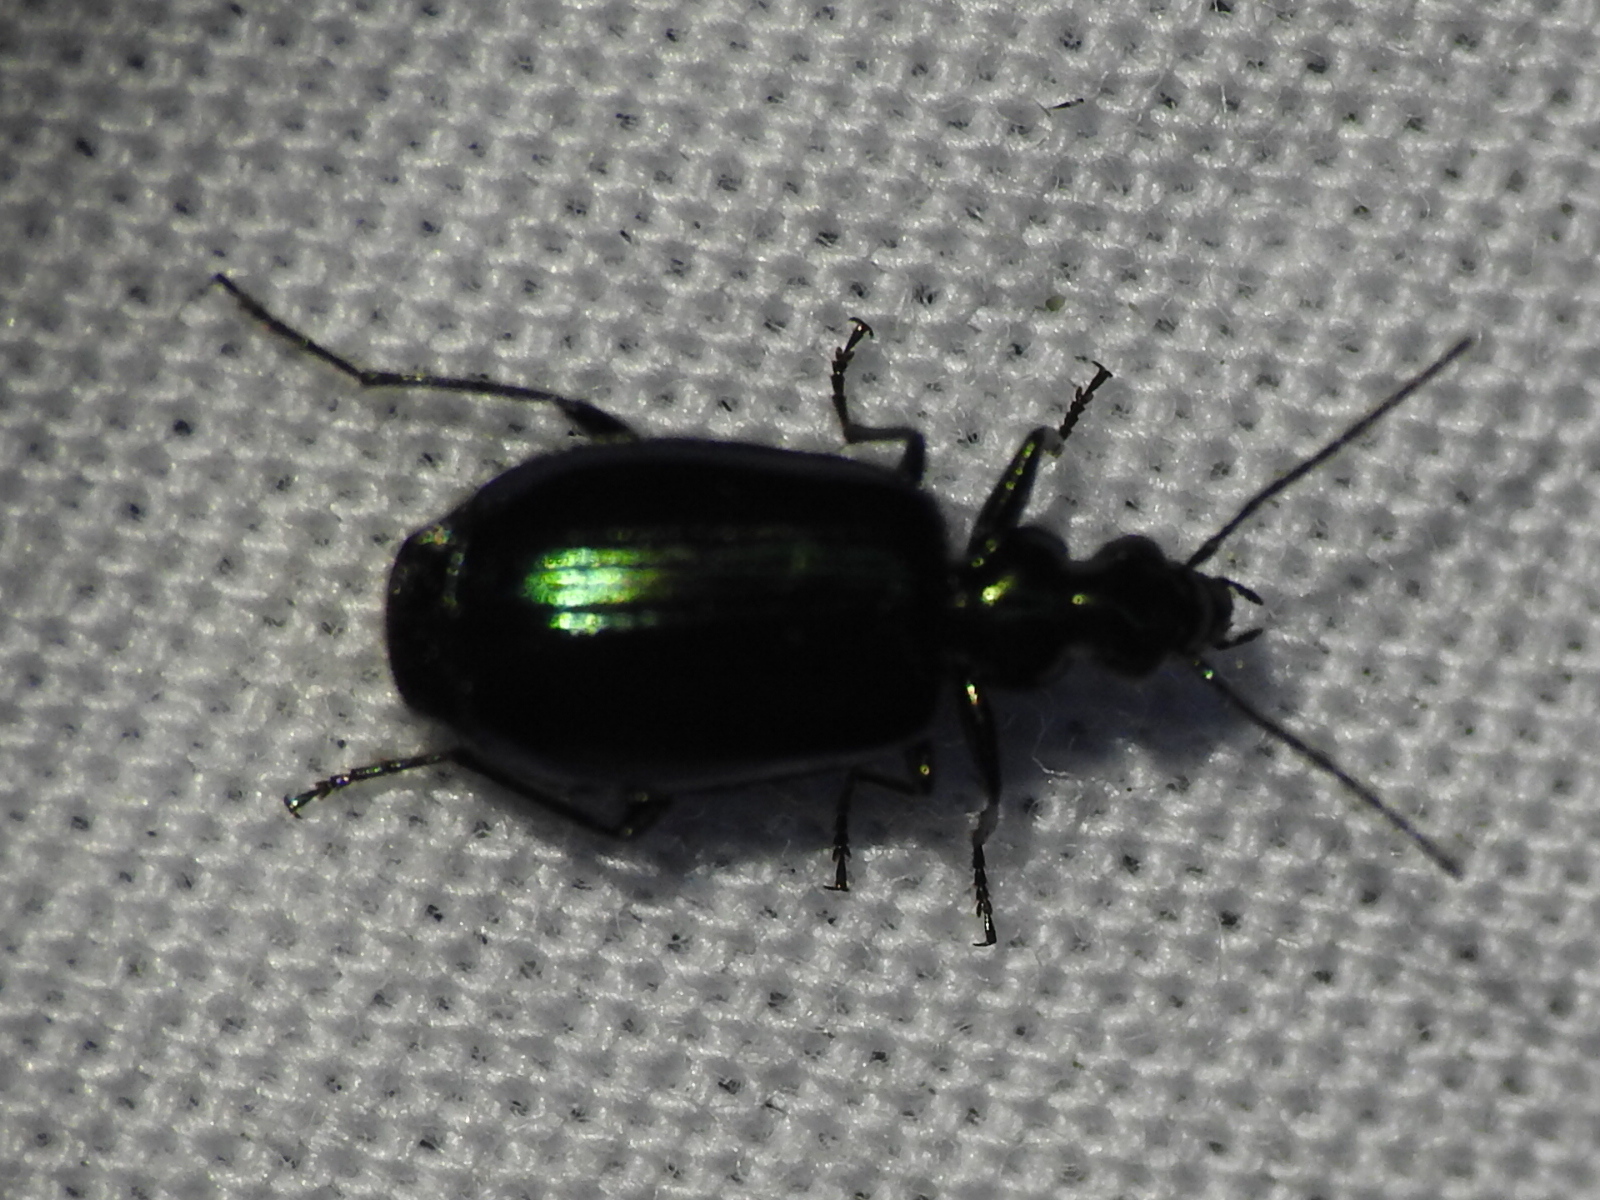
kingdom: Animalia
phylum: Arthropoda
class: Insecta
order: Coleoptera
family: Carabidae
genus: Lebia
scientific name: Lebia viridis
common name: Flower lebia beetle
